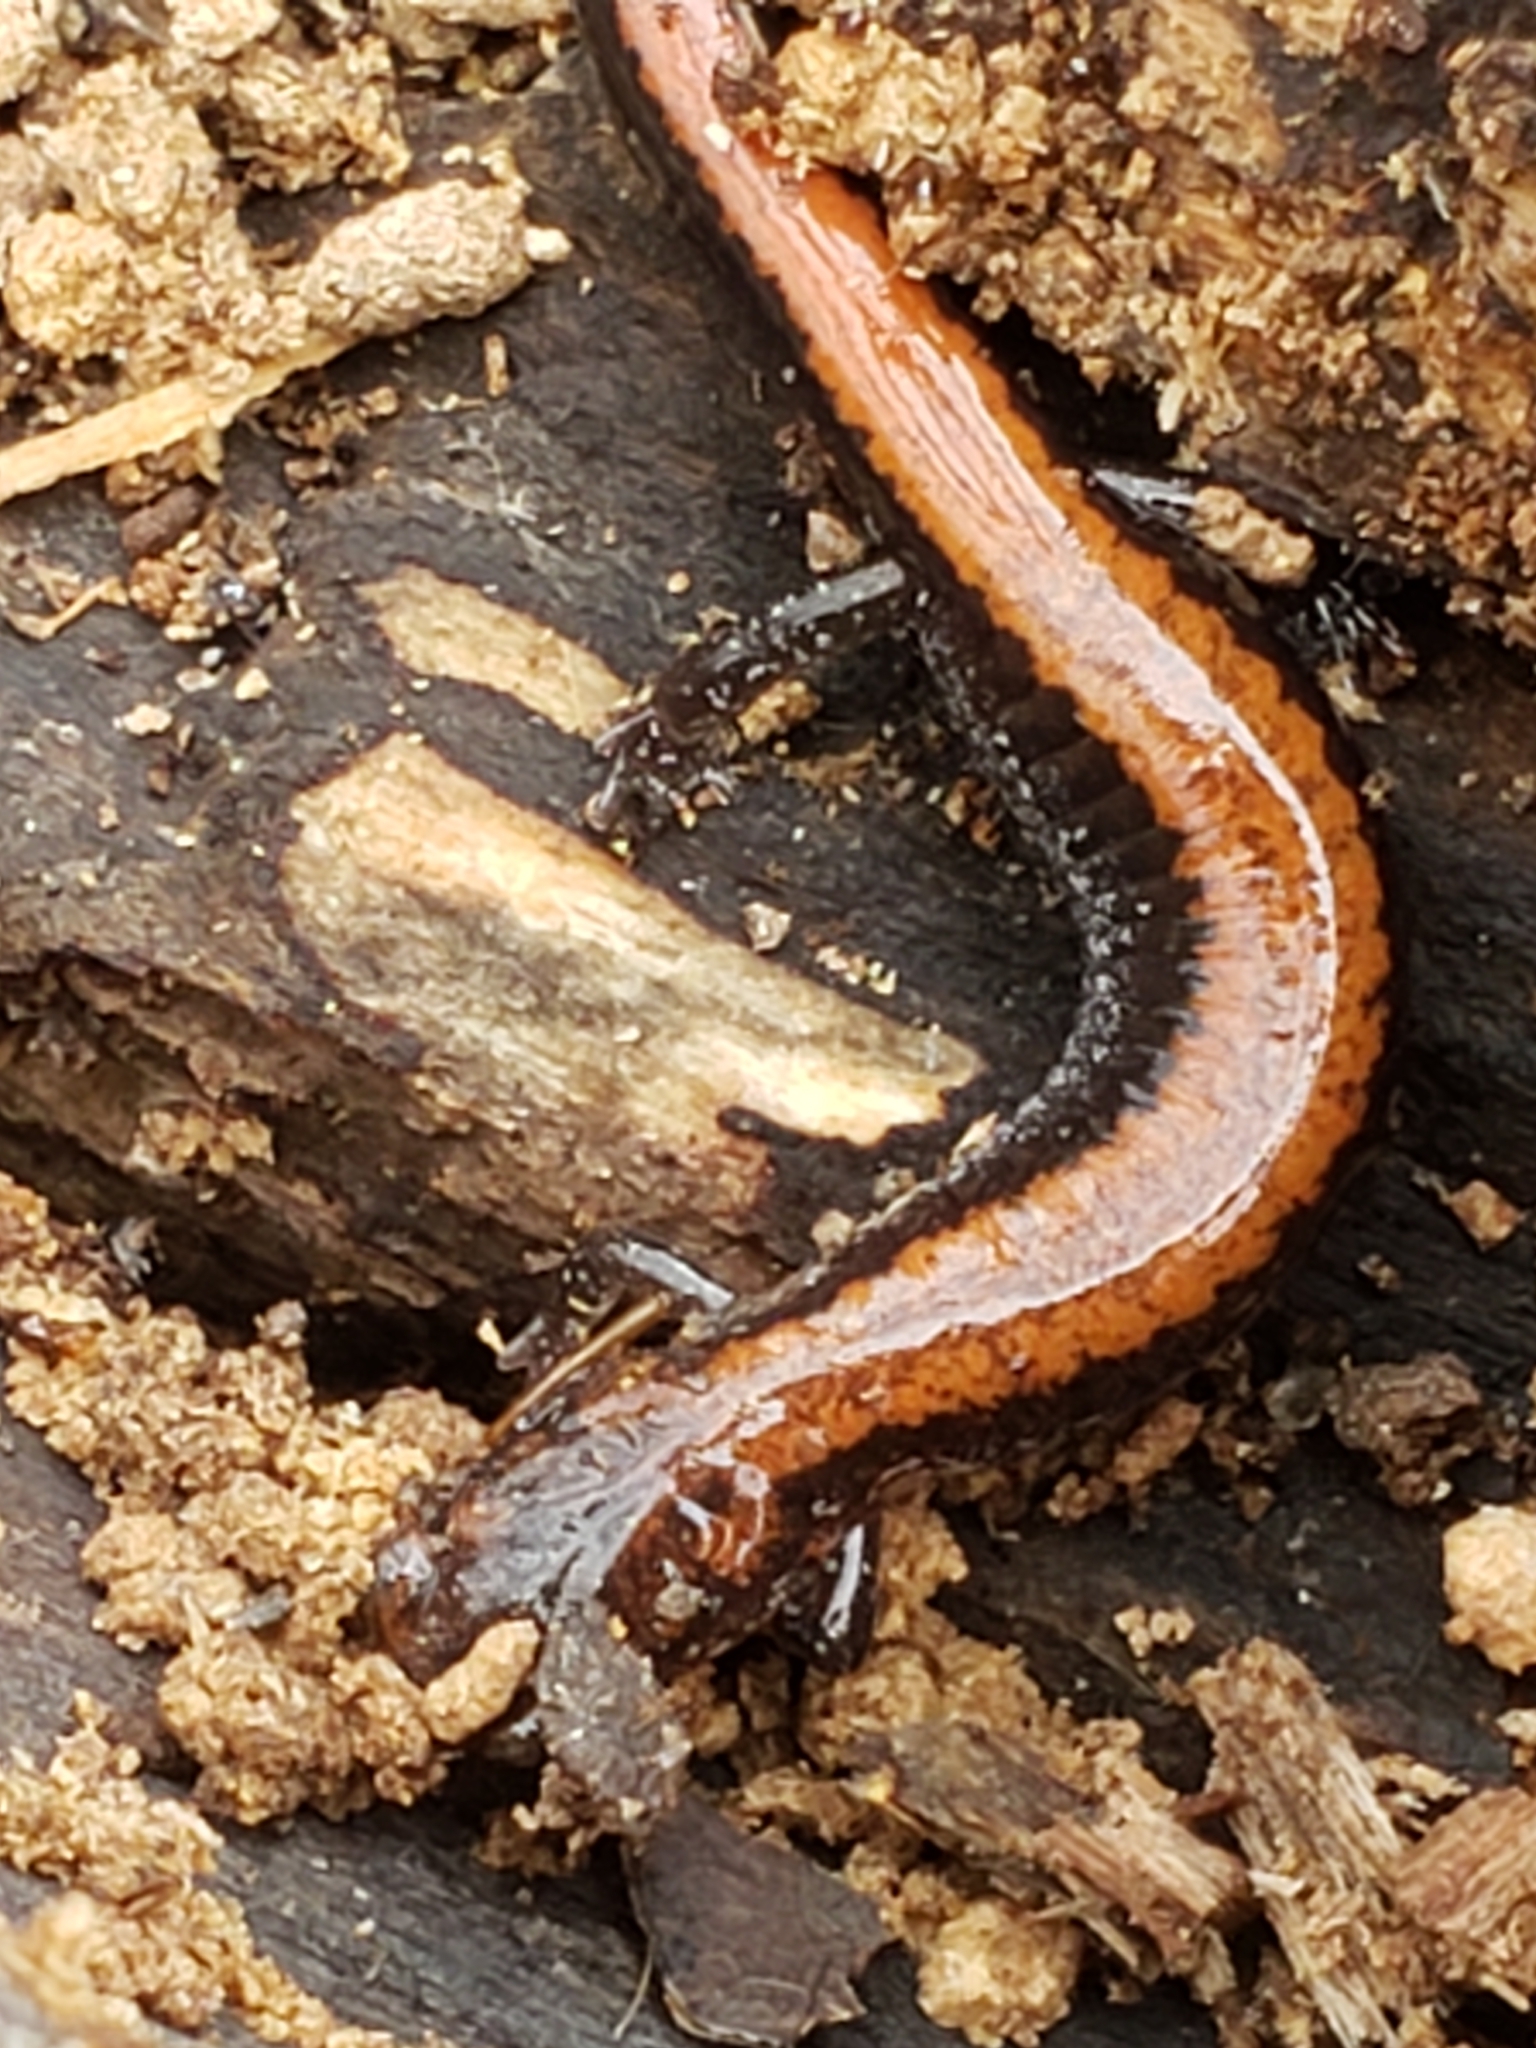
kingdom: Animalia
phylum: Chordata
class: Amphibia
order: Caudata
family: Plethodontidae
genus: Plethodon
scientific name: Plethodon cinereus
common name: Redback salamander
